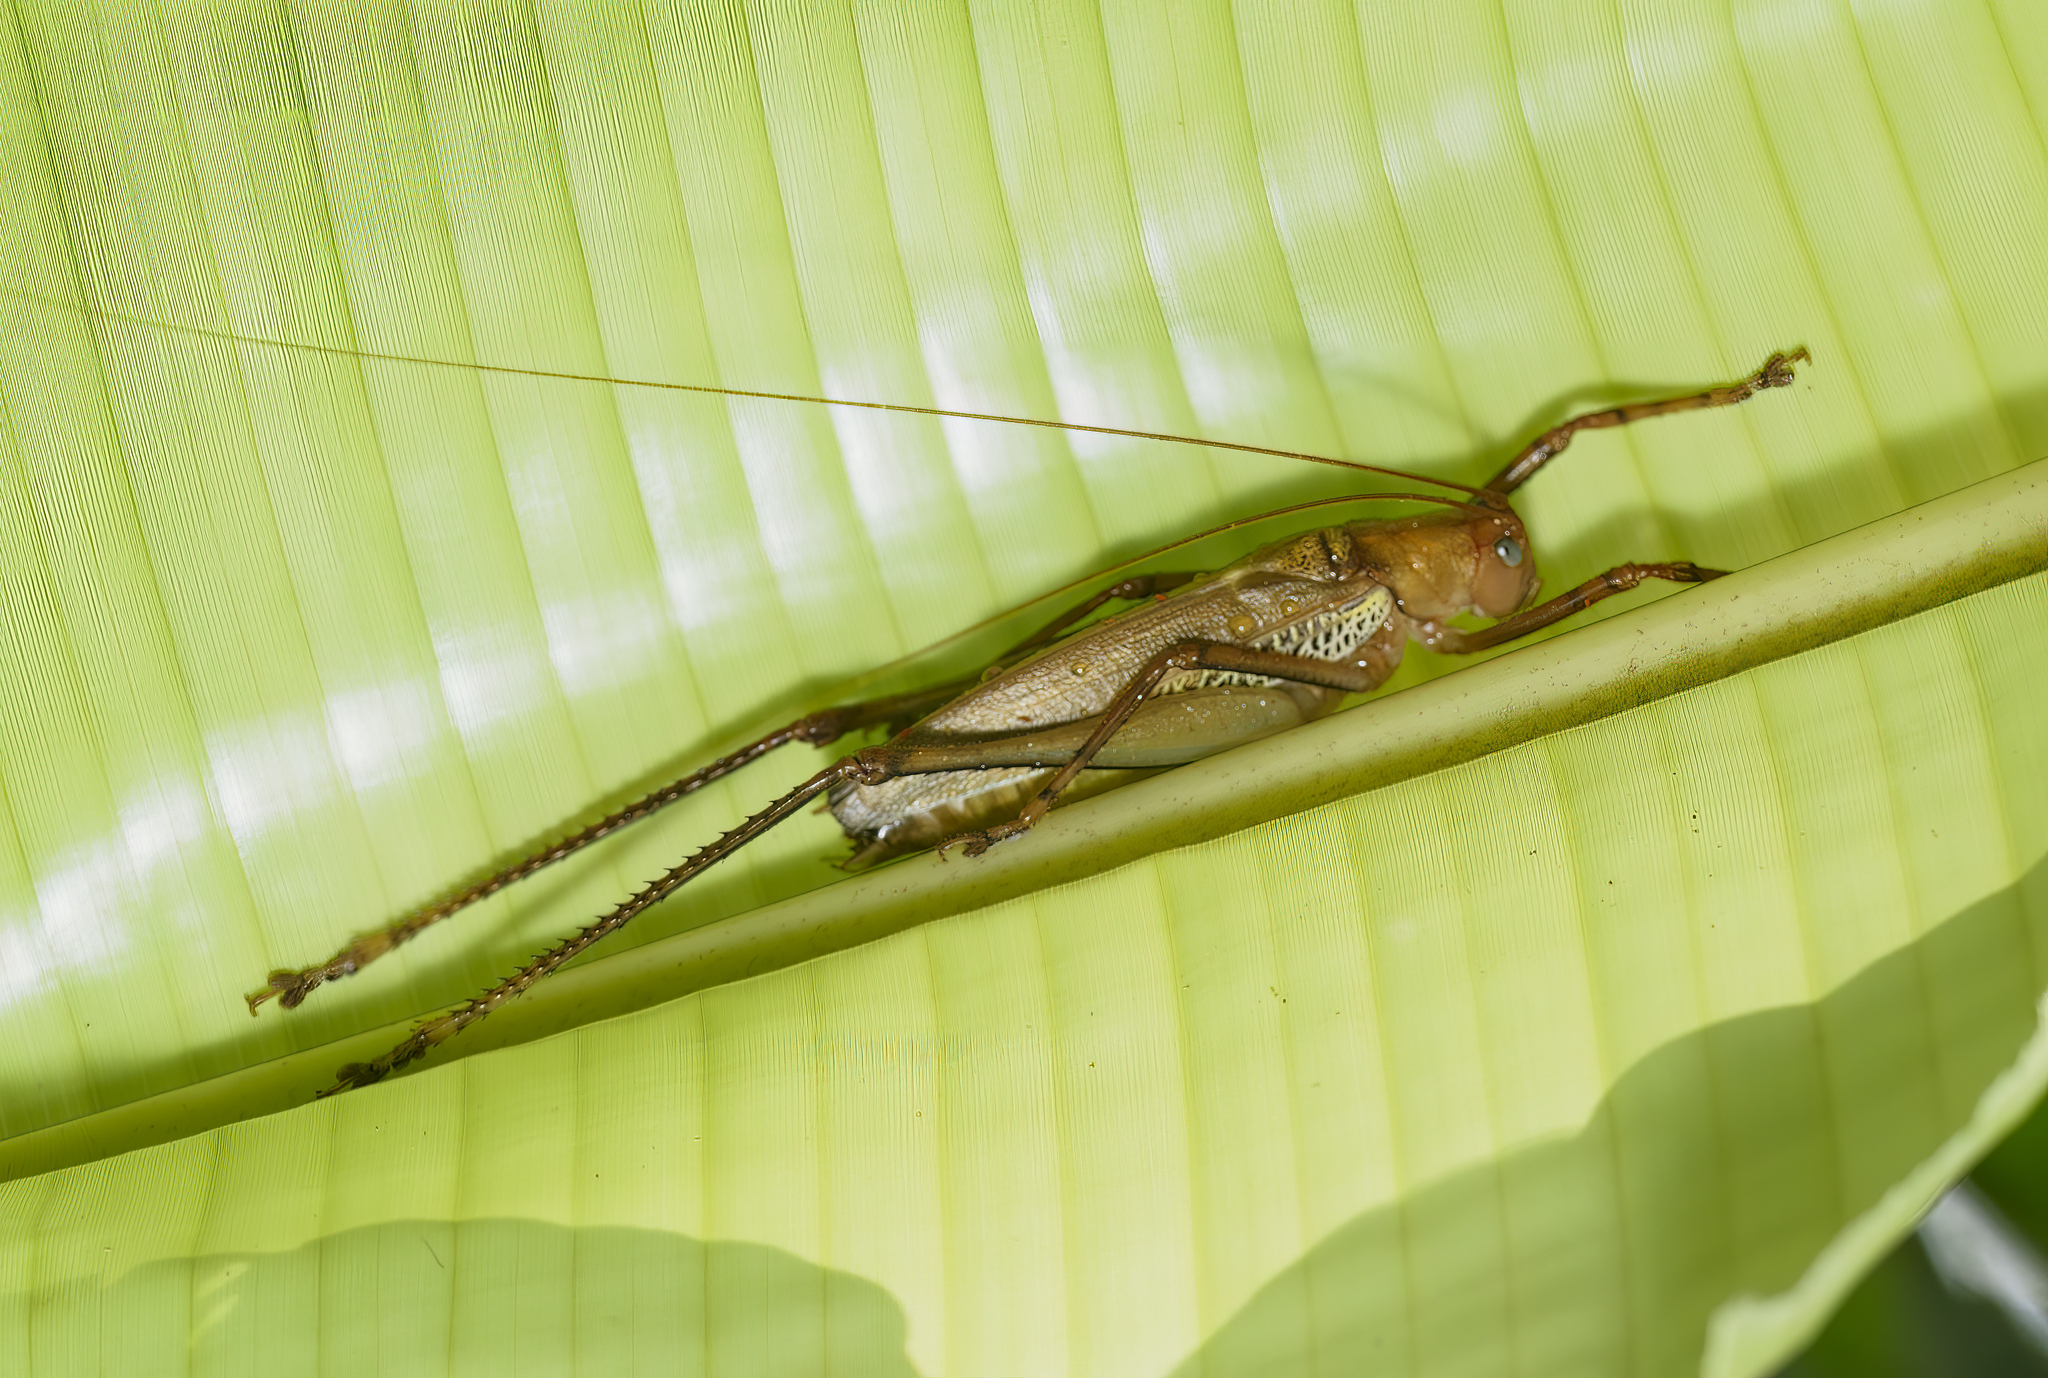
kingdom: Animalia
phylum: Arthropoda
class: Insecta
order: Orthoptera
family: Tettigoniidae
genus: Ischnomela
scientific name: Ischnomela pulchripennis
